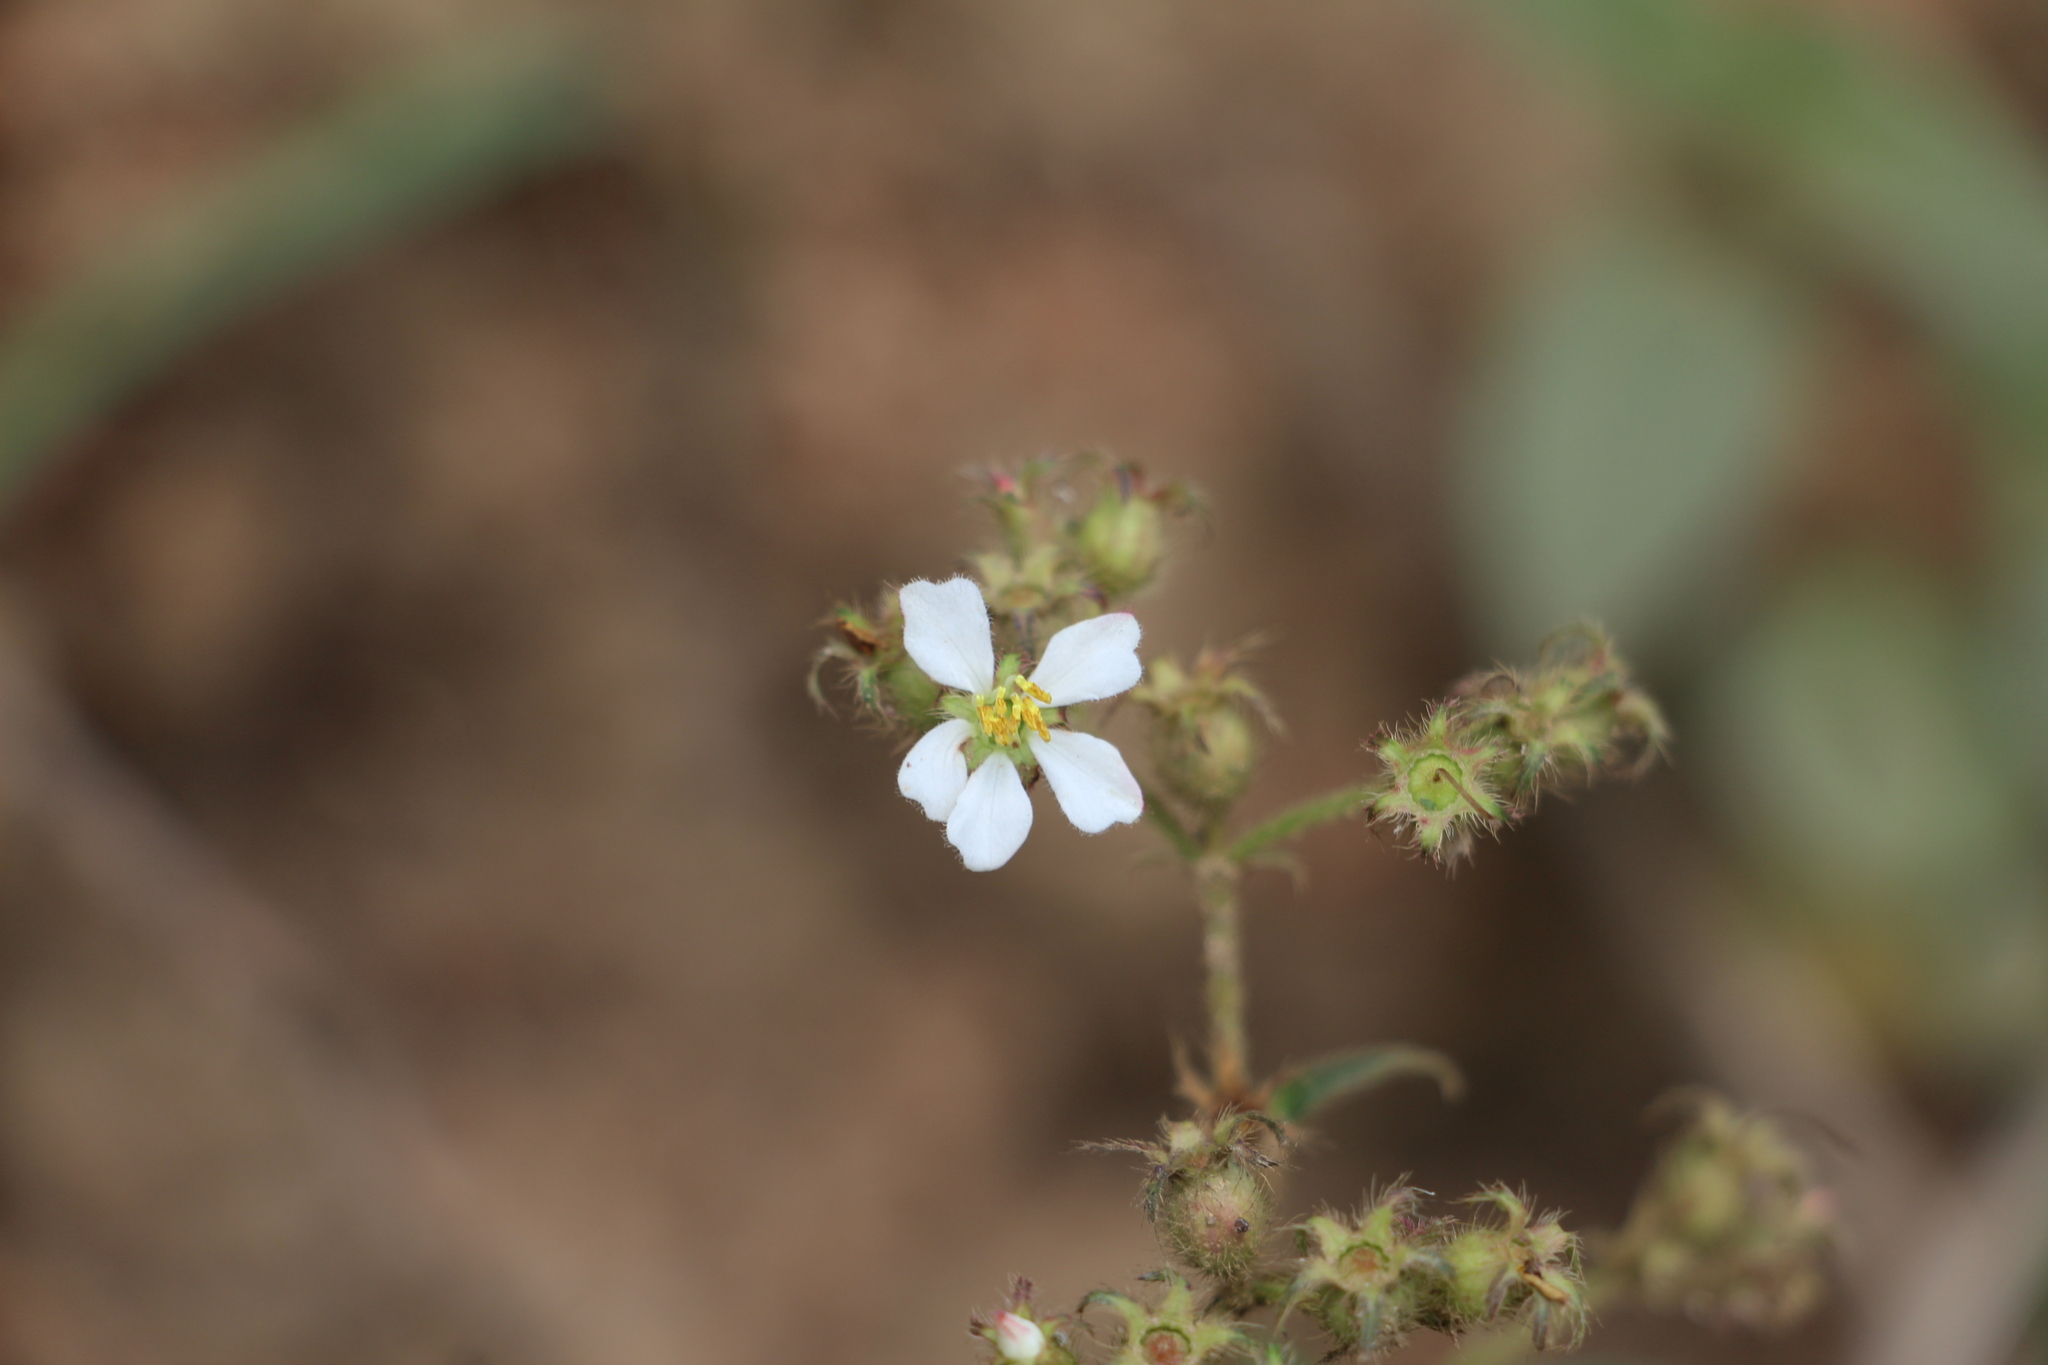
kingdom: Plantae
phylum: Tracheophyta
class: Magnoliopsida
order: Myrtales
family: Melastomataceae
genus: Chaetogastra
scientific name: Chaetogastra longifolia
